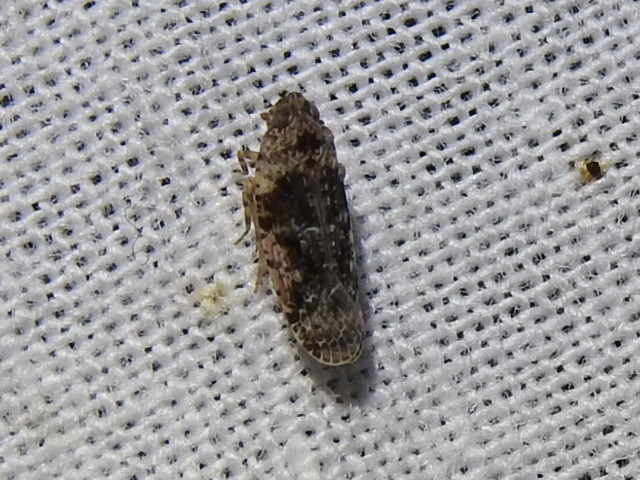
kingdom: Animalia
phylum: Arthropoda
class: Insecta
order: Hemiptera
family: Achilidae
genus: Catonia
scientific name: Catonia nava
